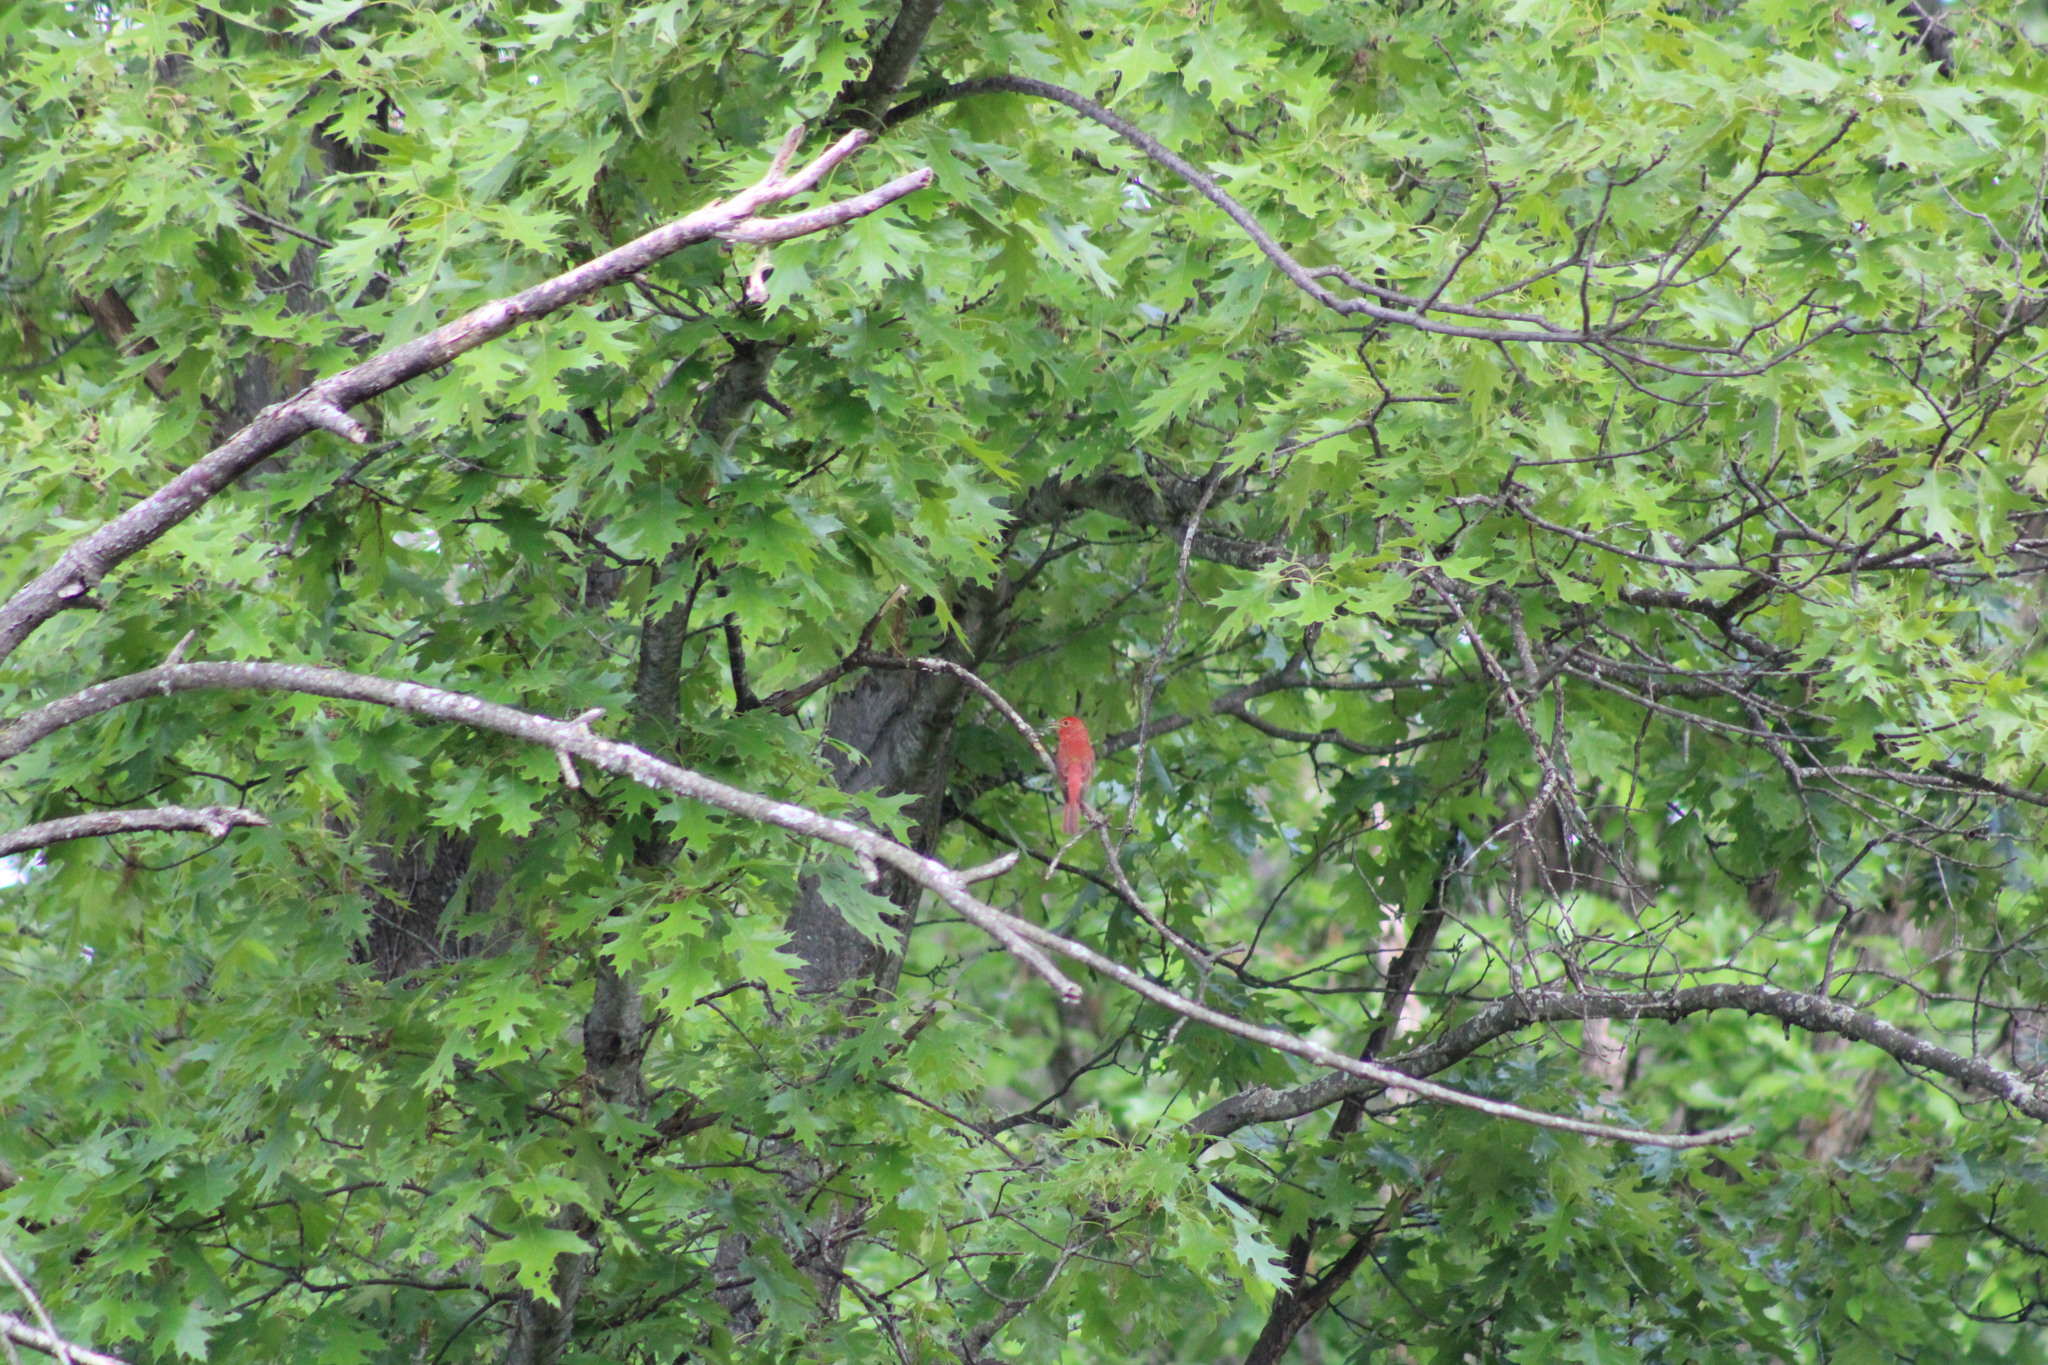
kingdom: Animalia
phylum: Chordata
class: Aves
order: Passeriformes
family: Cardinalidae
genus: Piranga
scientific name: Piranga rubra
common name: Summer tanager
